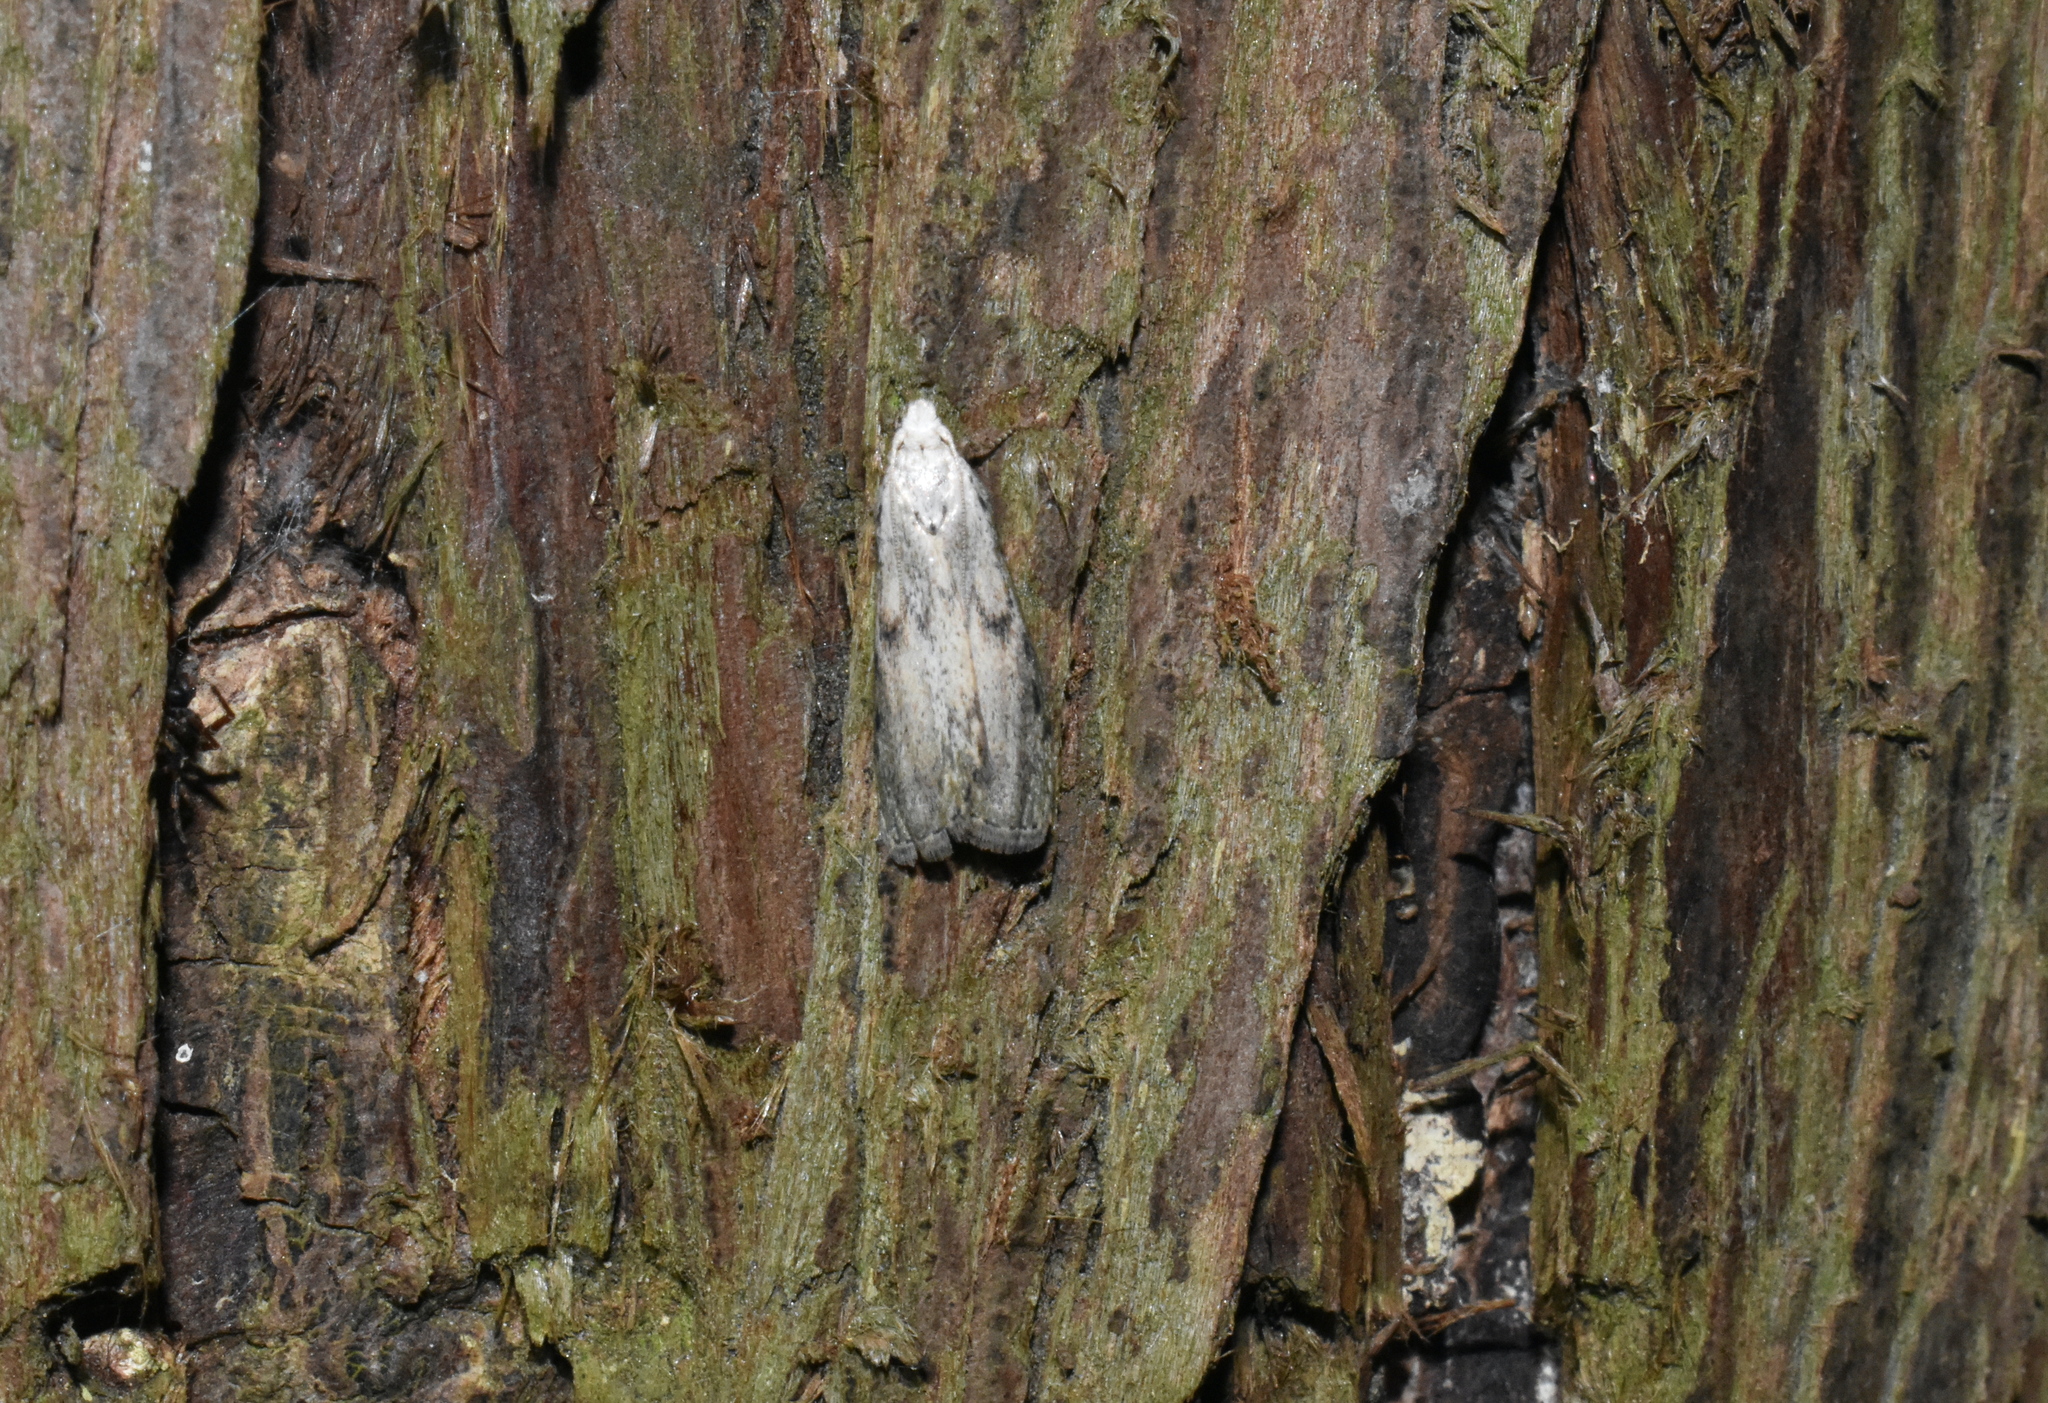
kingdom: Animalia
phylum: Arthropoda
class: Insecta
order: Lepidoptera
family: Pyralidae
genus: Aphomia
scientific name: Aphomia sociella
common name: Bee moth
